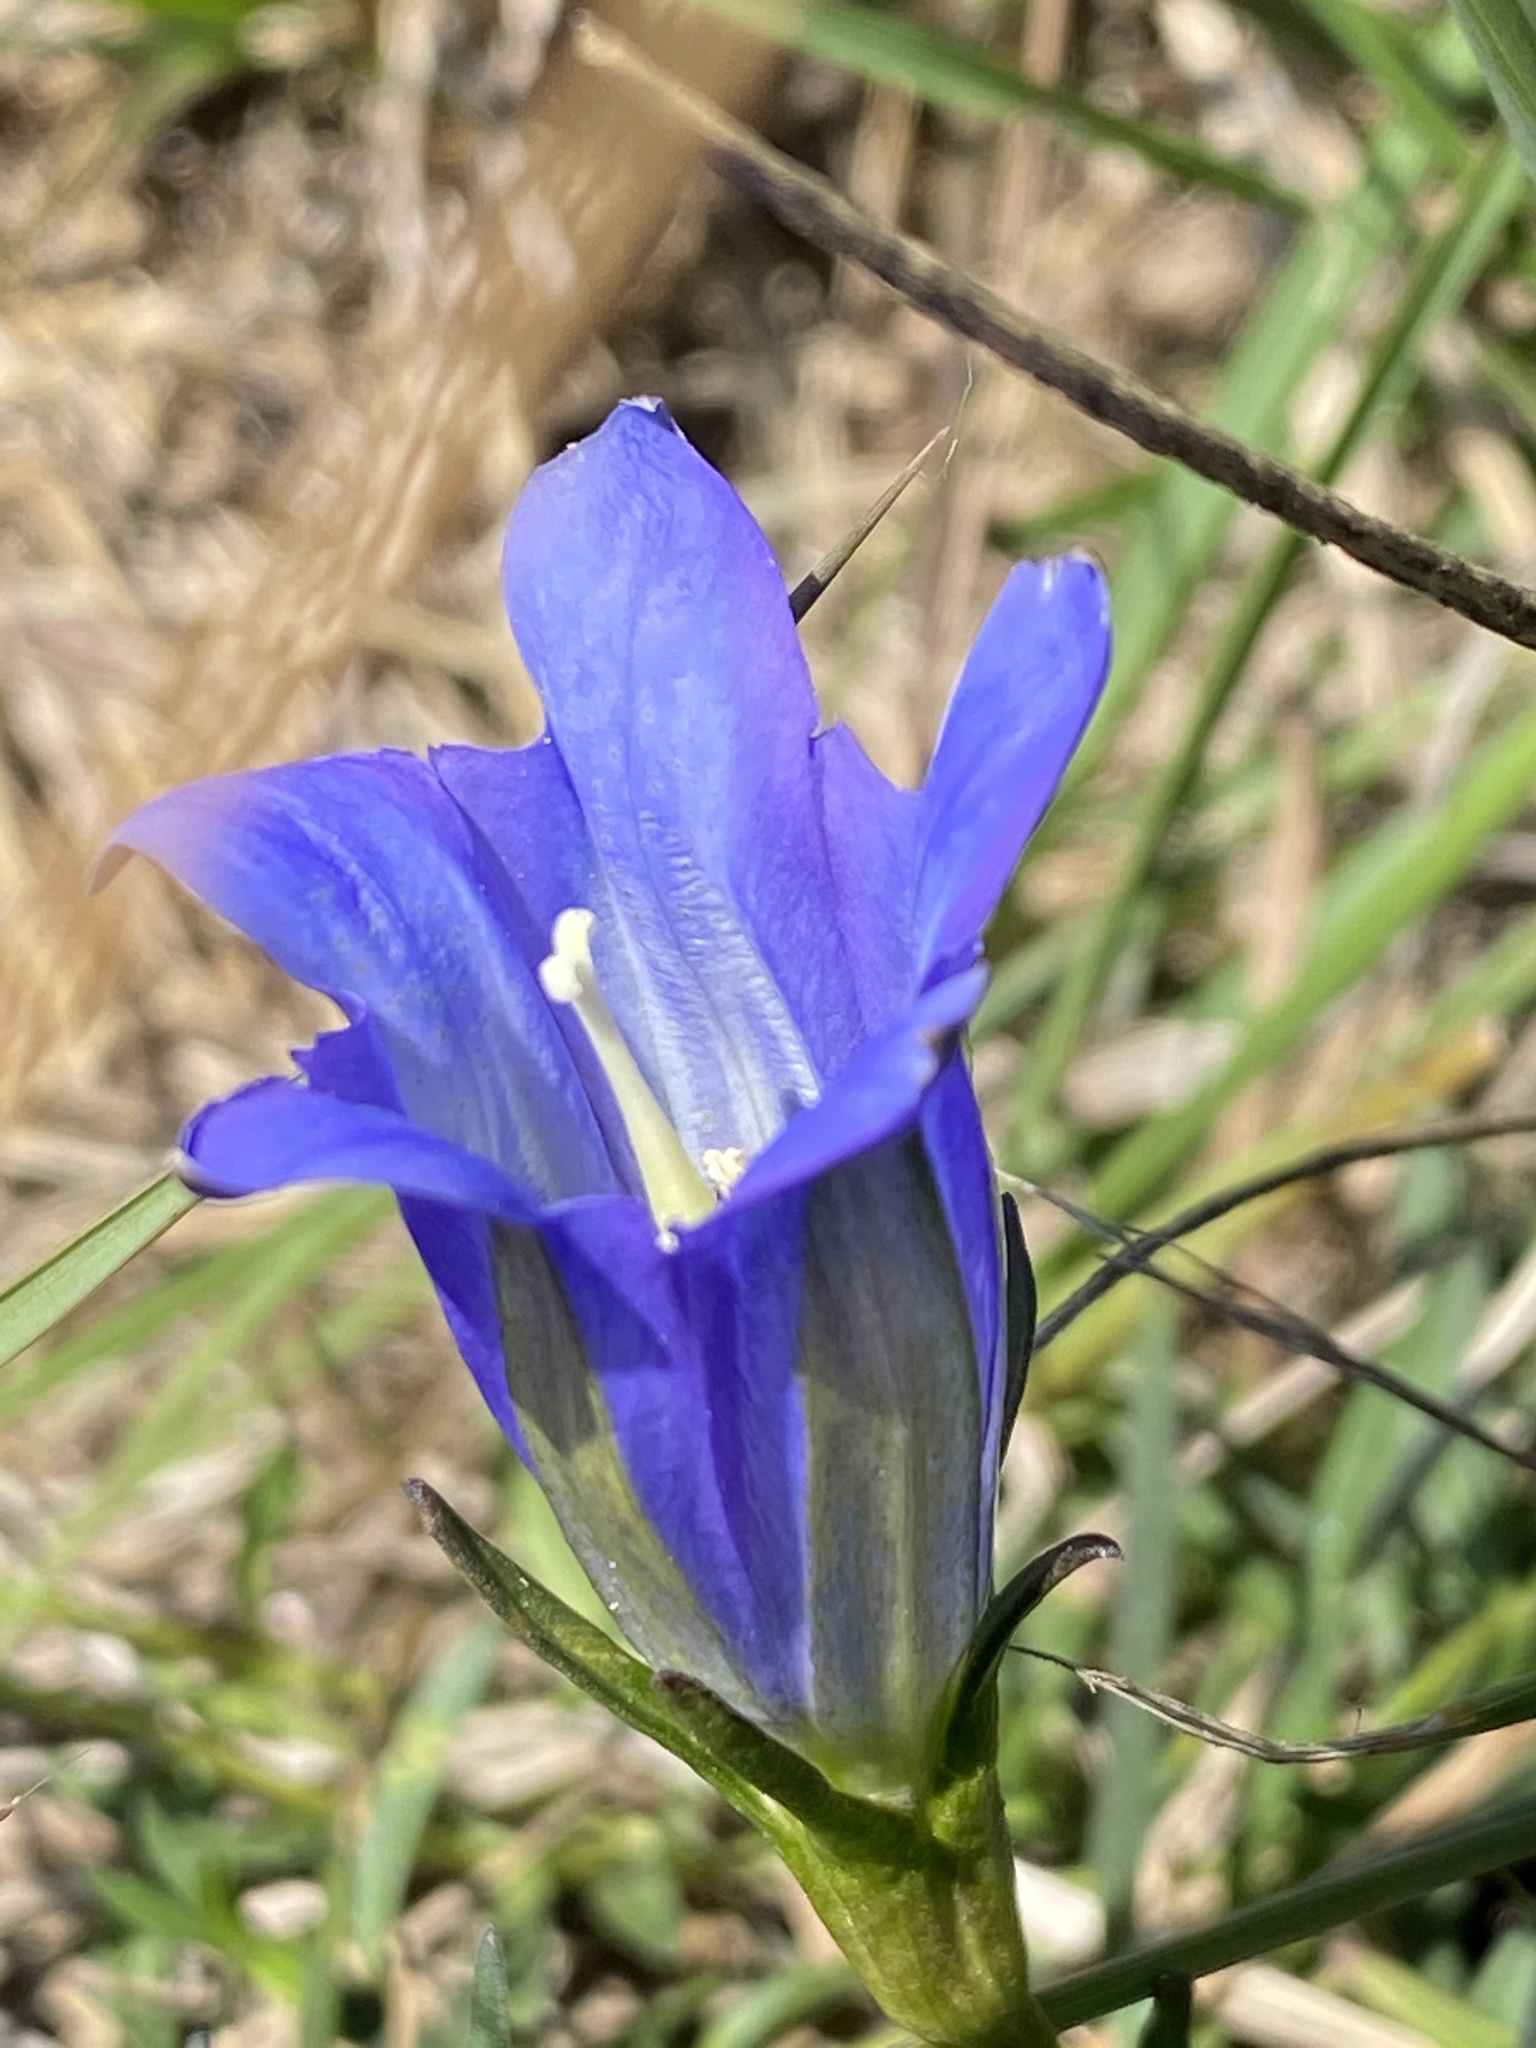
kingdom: Plantae
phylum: Tracheophyta
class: Magnoliopsida
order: Gentianales
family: Gentianaceae
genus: Gentiana
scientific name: Gentiana pneumonanthe
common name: Marsh gentian
